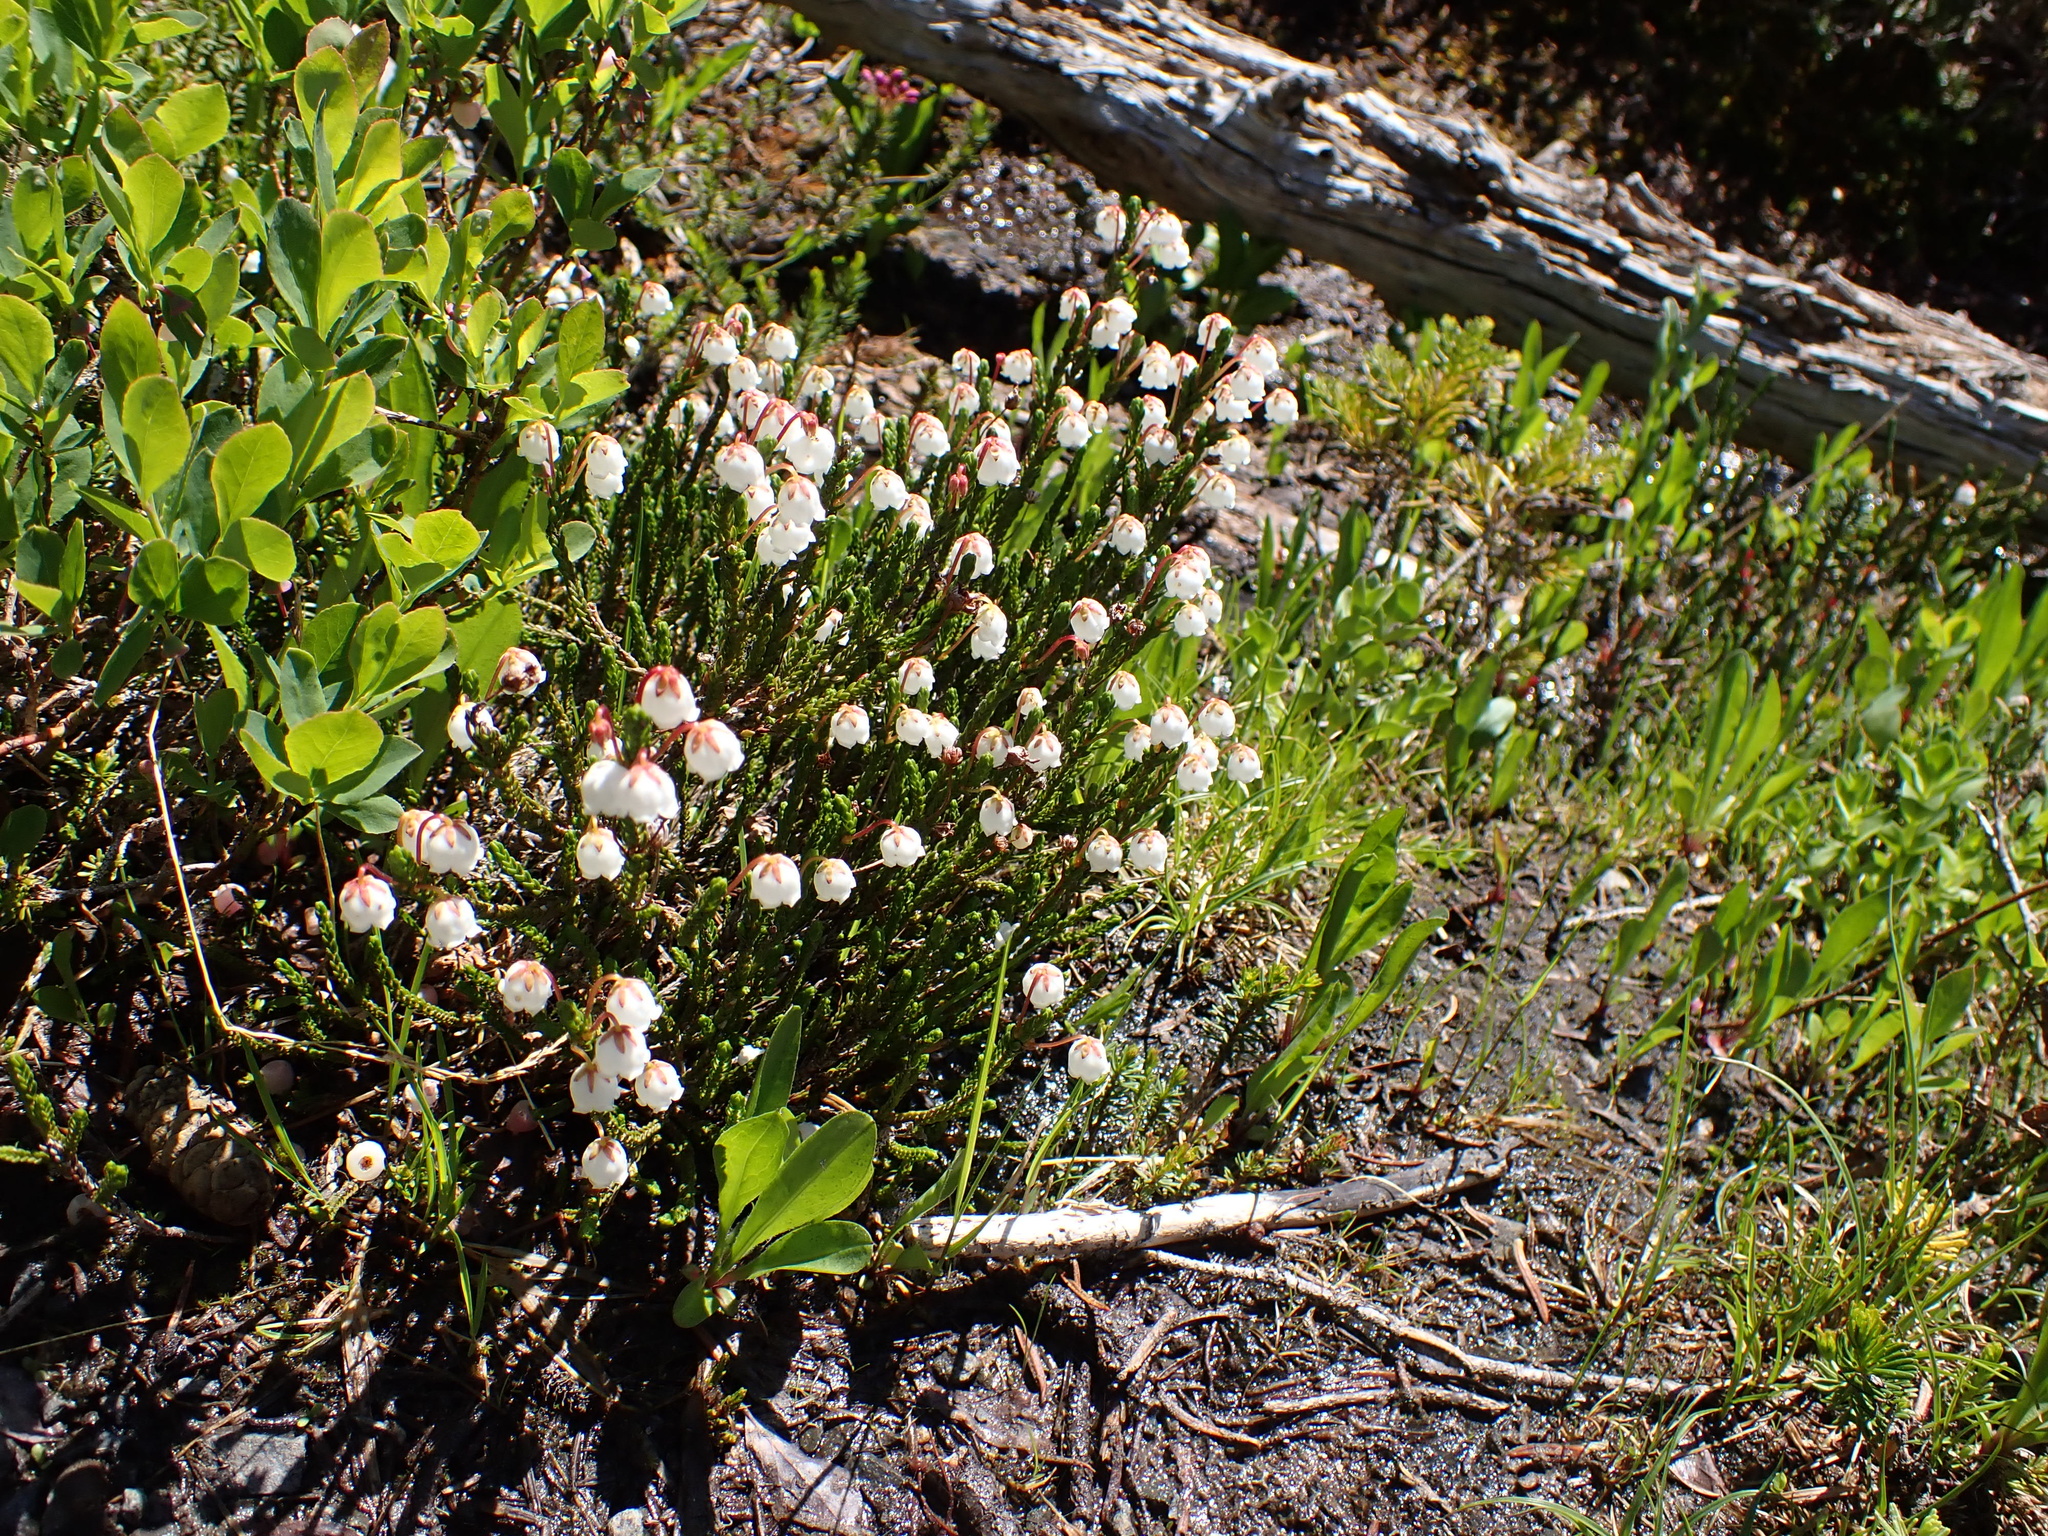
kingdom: Plantae
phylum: Tracheophyta
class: Magnoliopsida
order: Ericales
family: Ericaceae
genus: Cassiope
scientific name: Cassiope mertensiana
